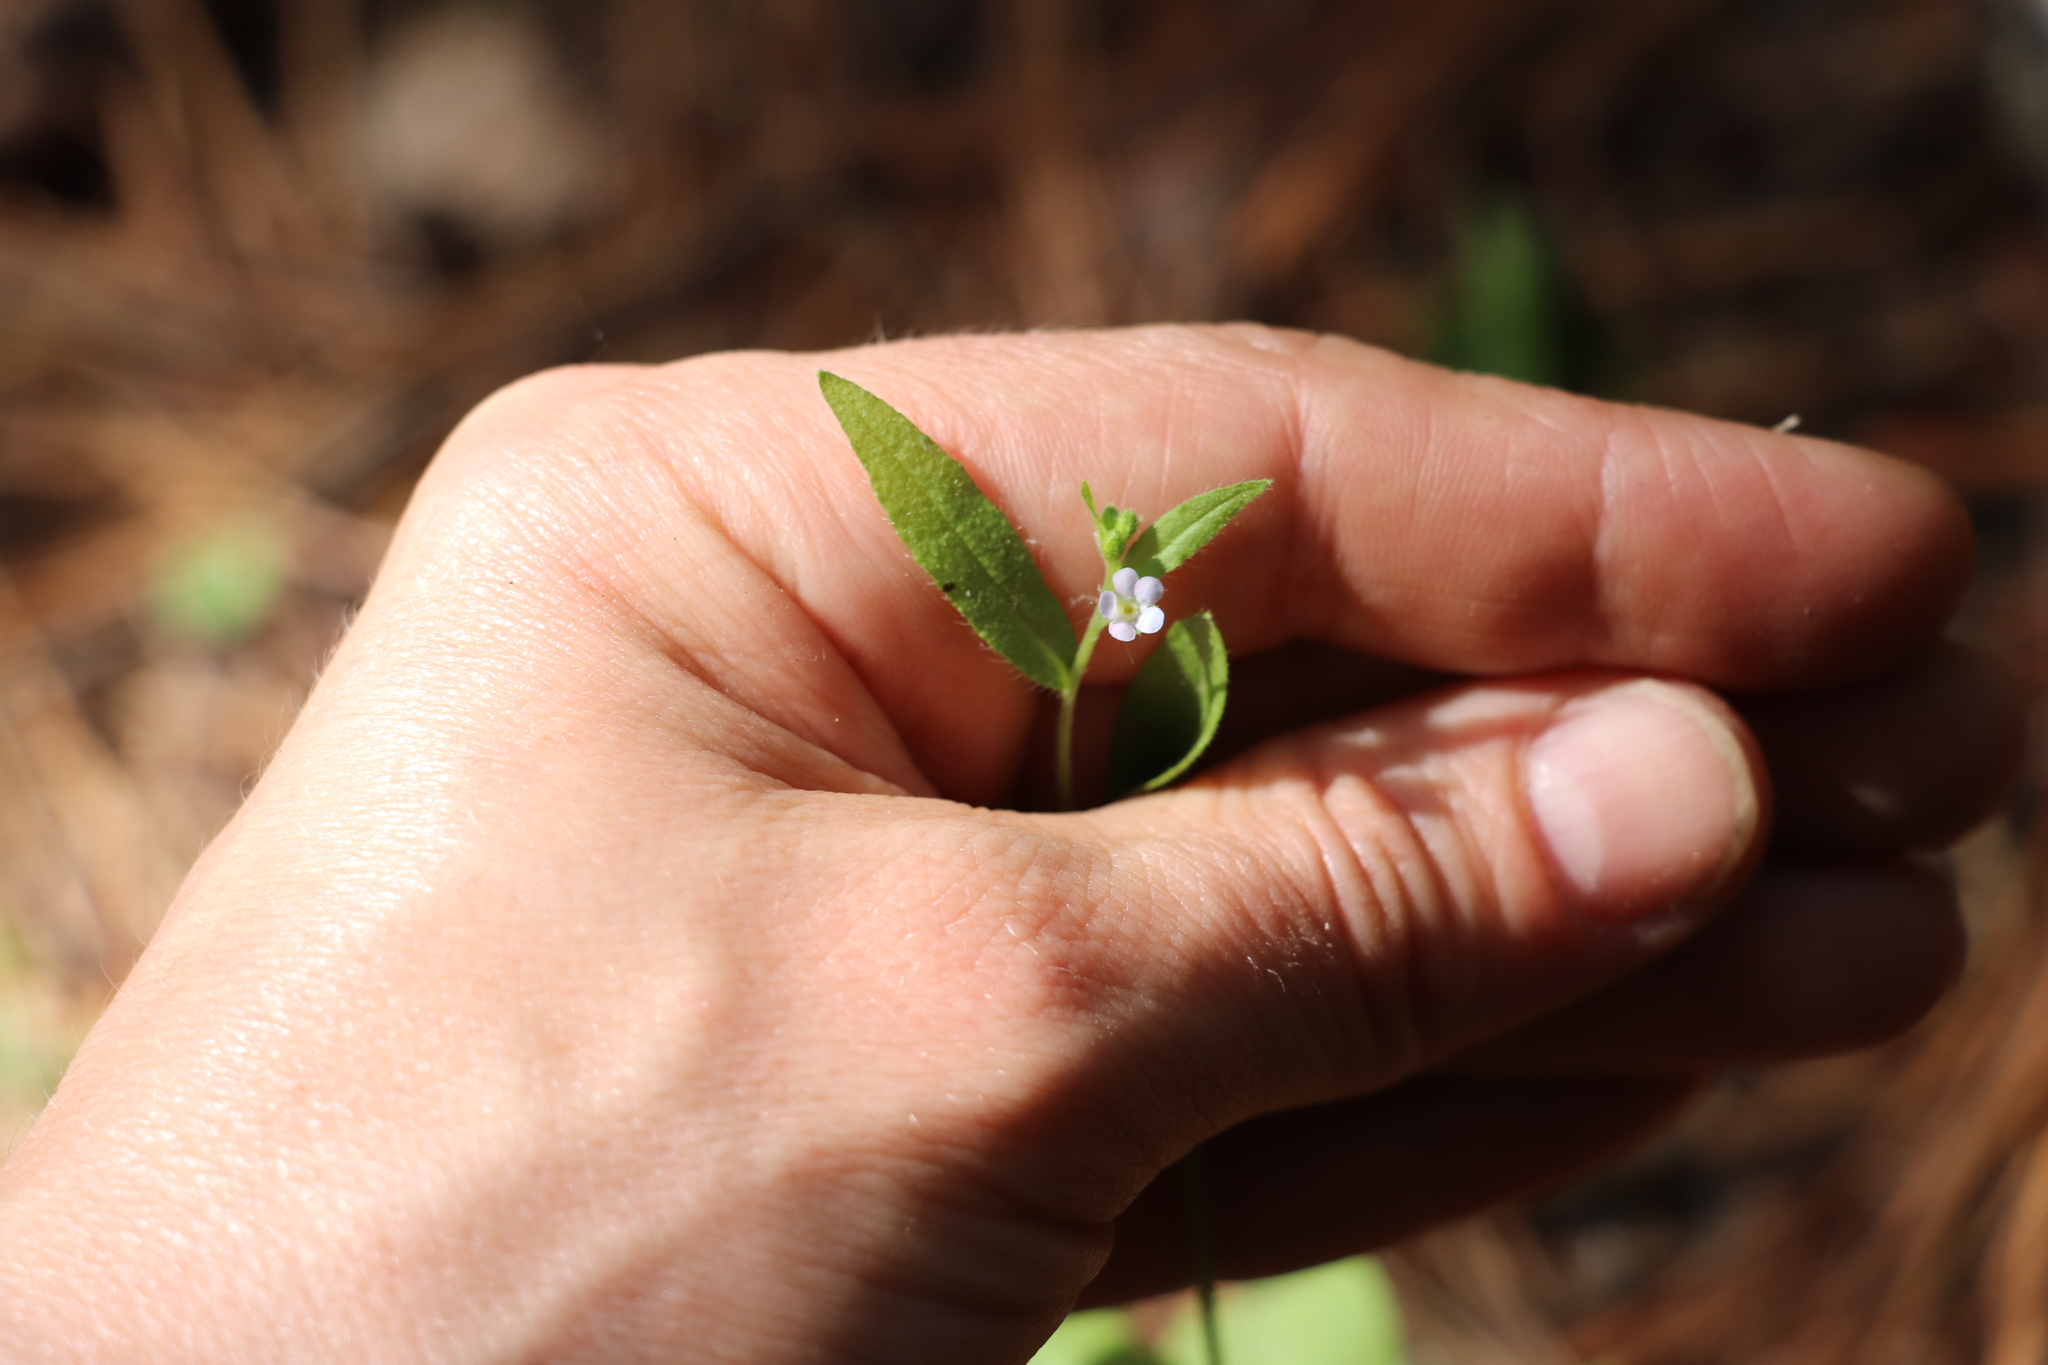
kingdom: Plantae
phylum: Tracheophyta
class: Magnoliopsida
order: Boraginales
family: Boraginaceae
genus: Hackelia
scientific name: Hackelia deflexa
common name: Nodding stickseed
